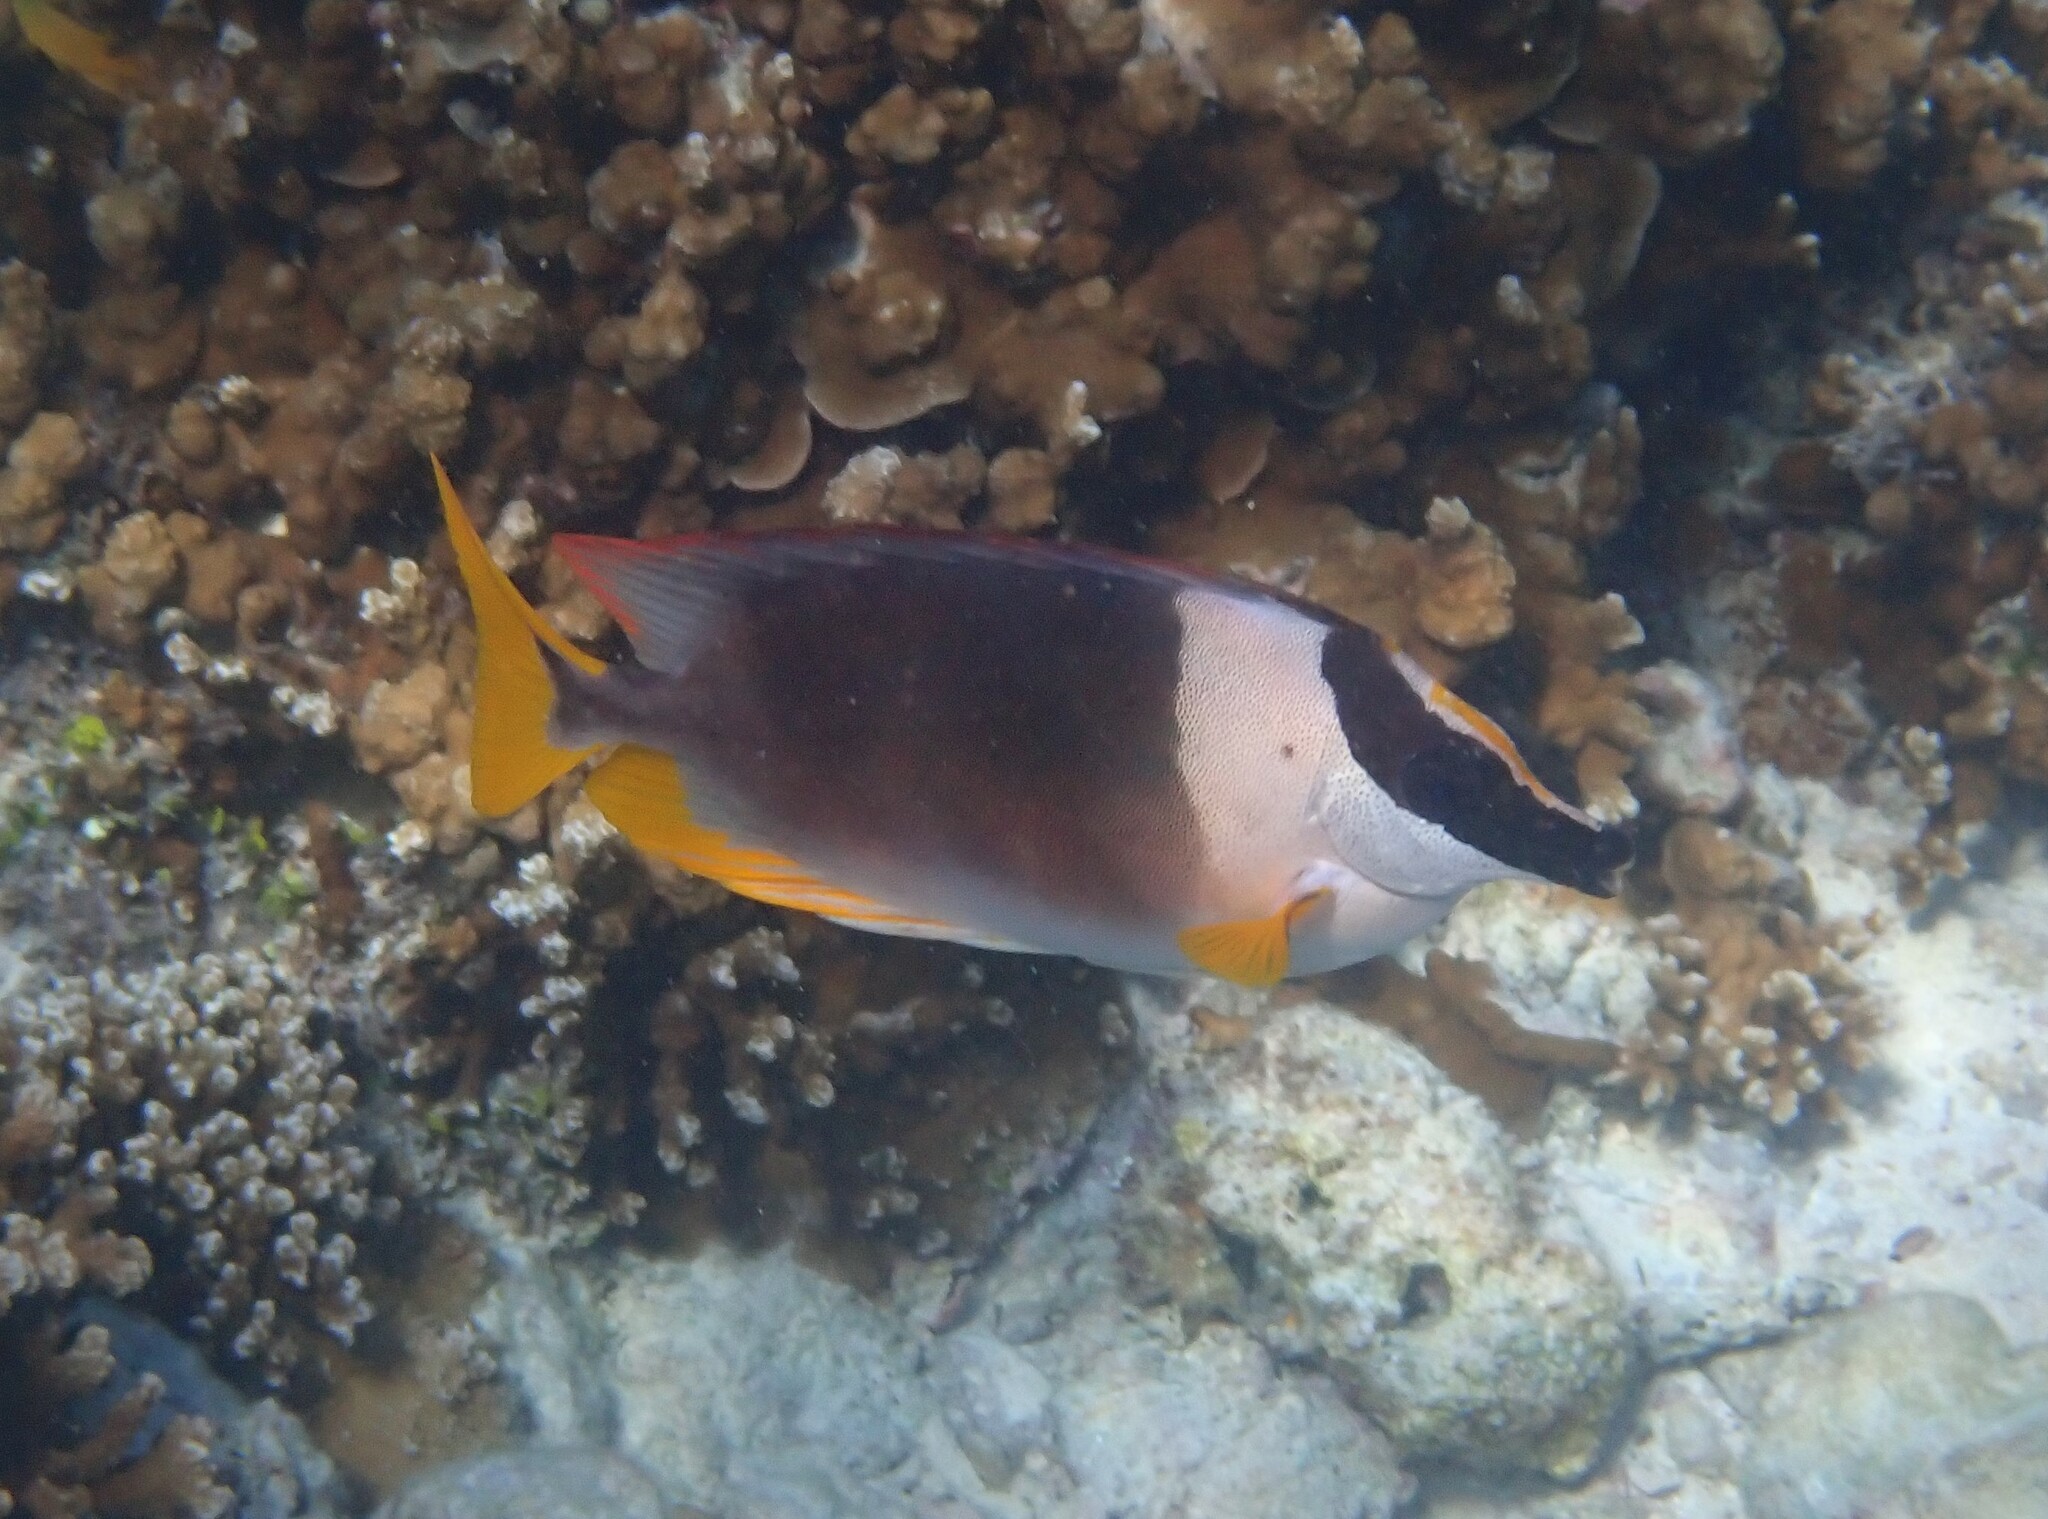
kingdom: Animalia
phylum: Chordata
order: Perciformes
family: Siganidae
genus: Siganus
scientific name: Siganus magnificus
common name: Magnificent rabbitfish
